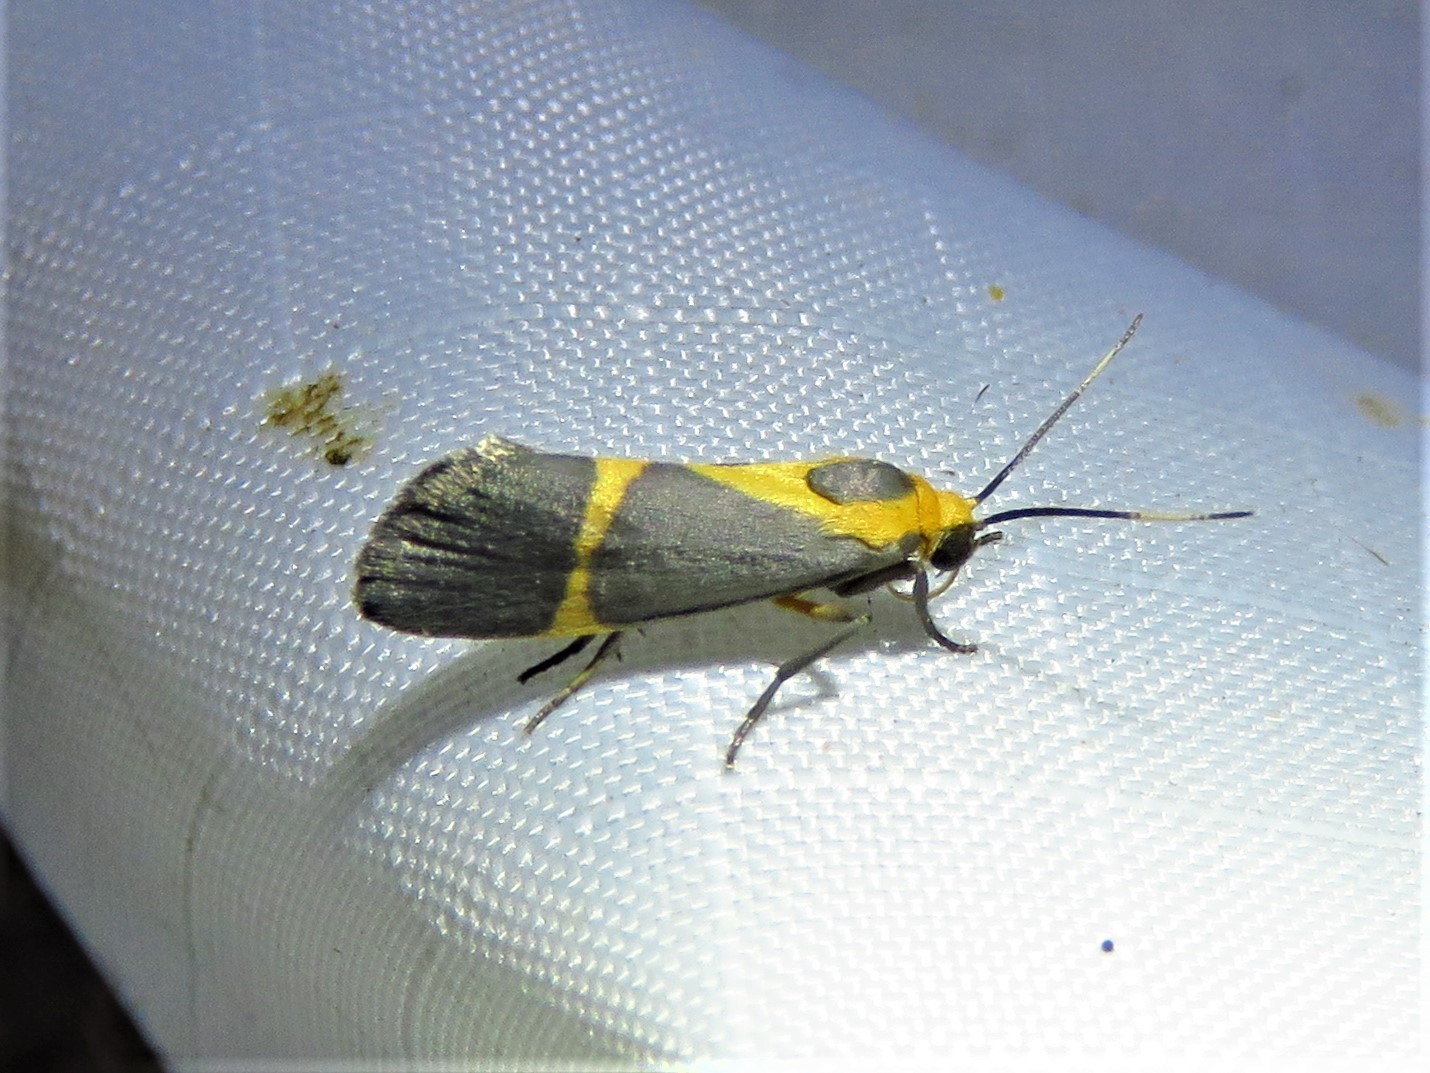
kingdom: Animalia
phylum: Arthropoda
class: Insecta
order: Lepidoptera
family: Erebidae
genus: Cisthene
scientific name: Cisthene tenuifascia
